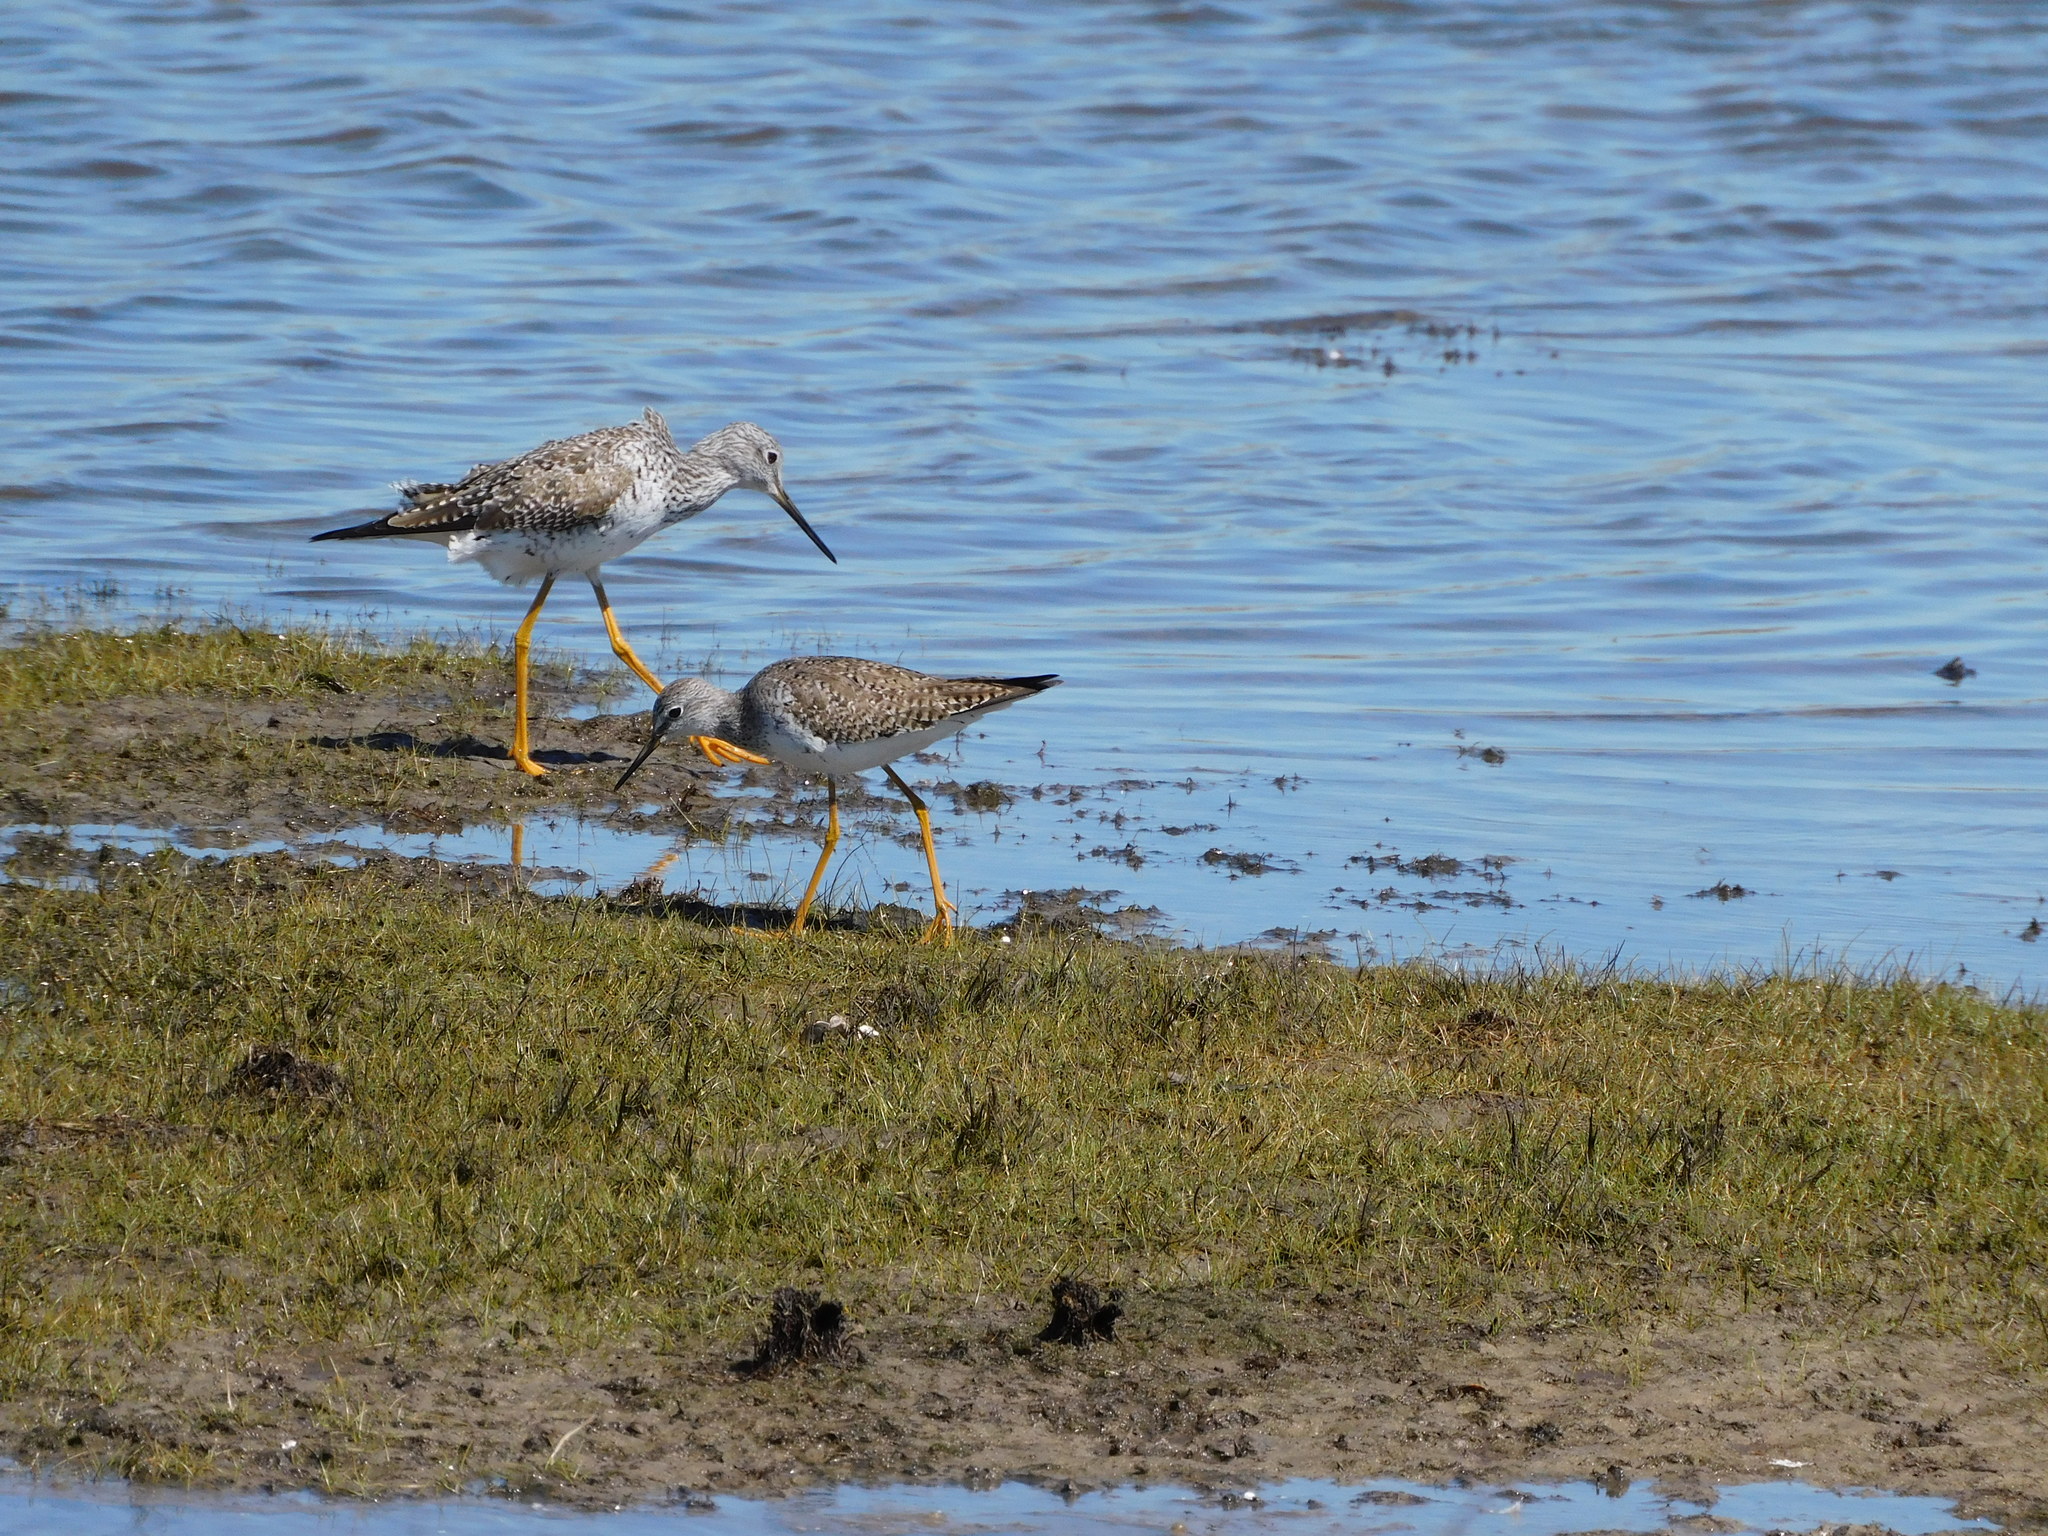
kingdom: Animalia
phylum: Chordata
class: Aves
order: Charadriiformes
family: Scolopacidae
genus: Tringa
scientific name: Tringa melanoleuca
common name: Greater yellowlegs
